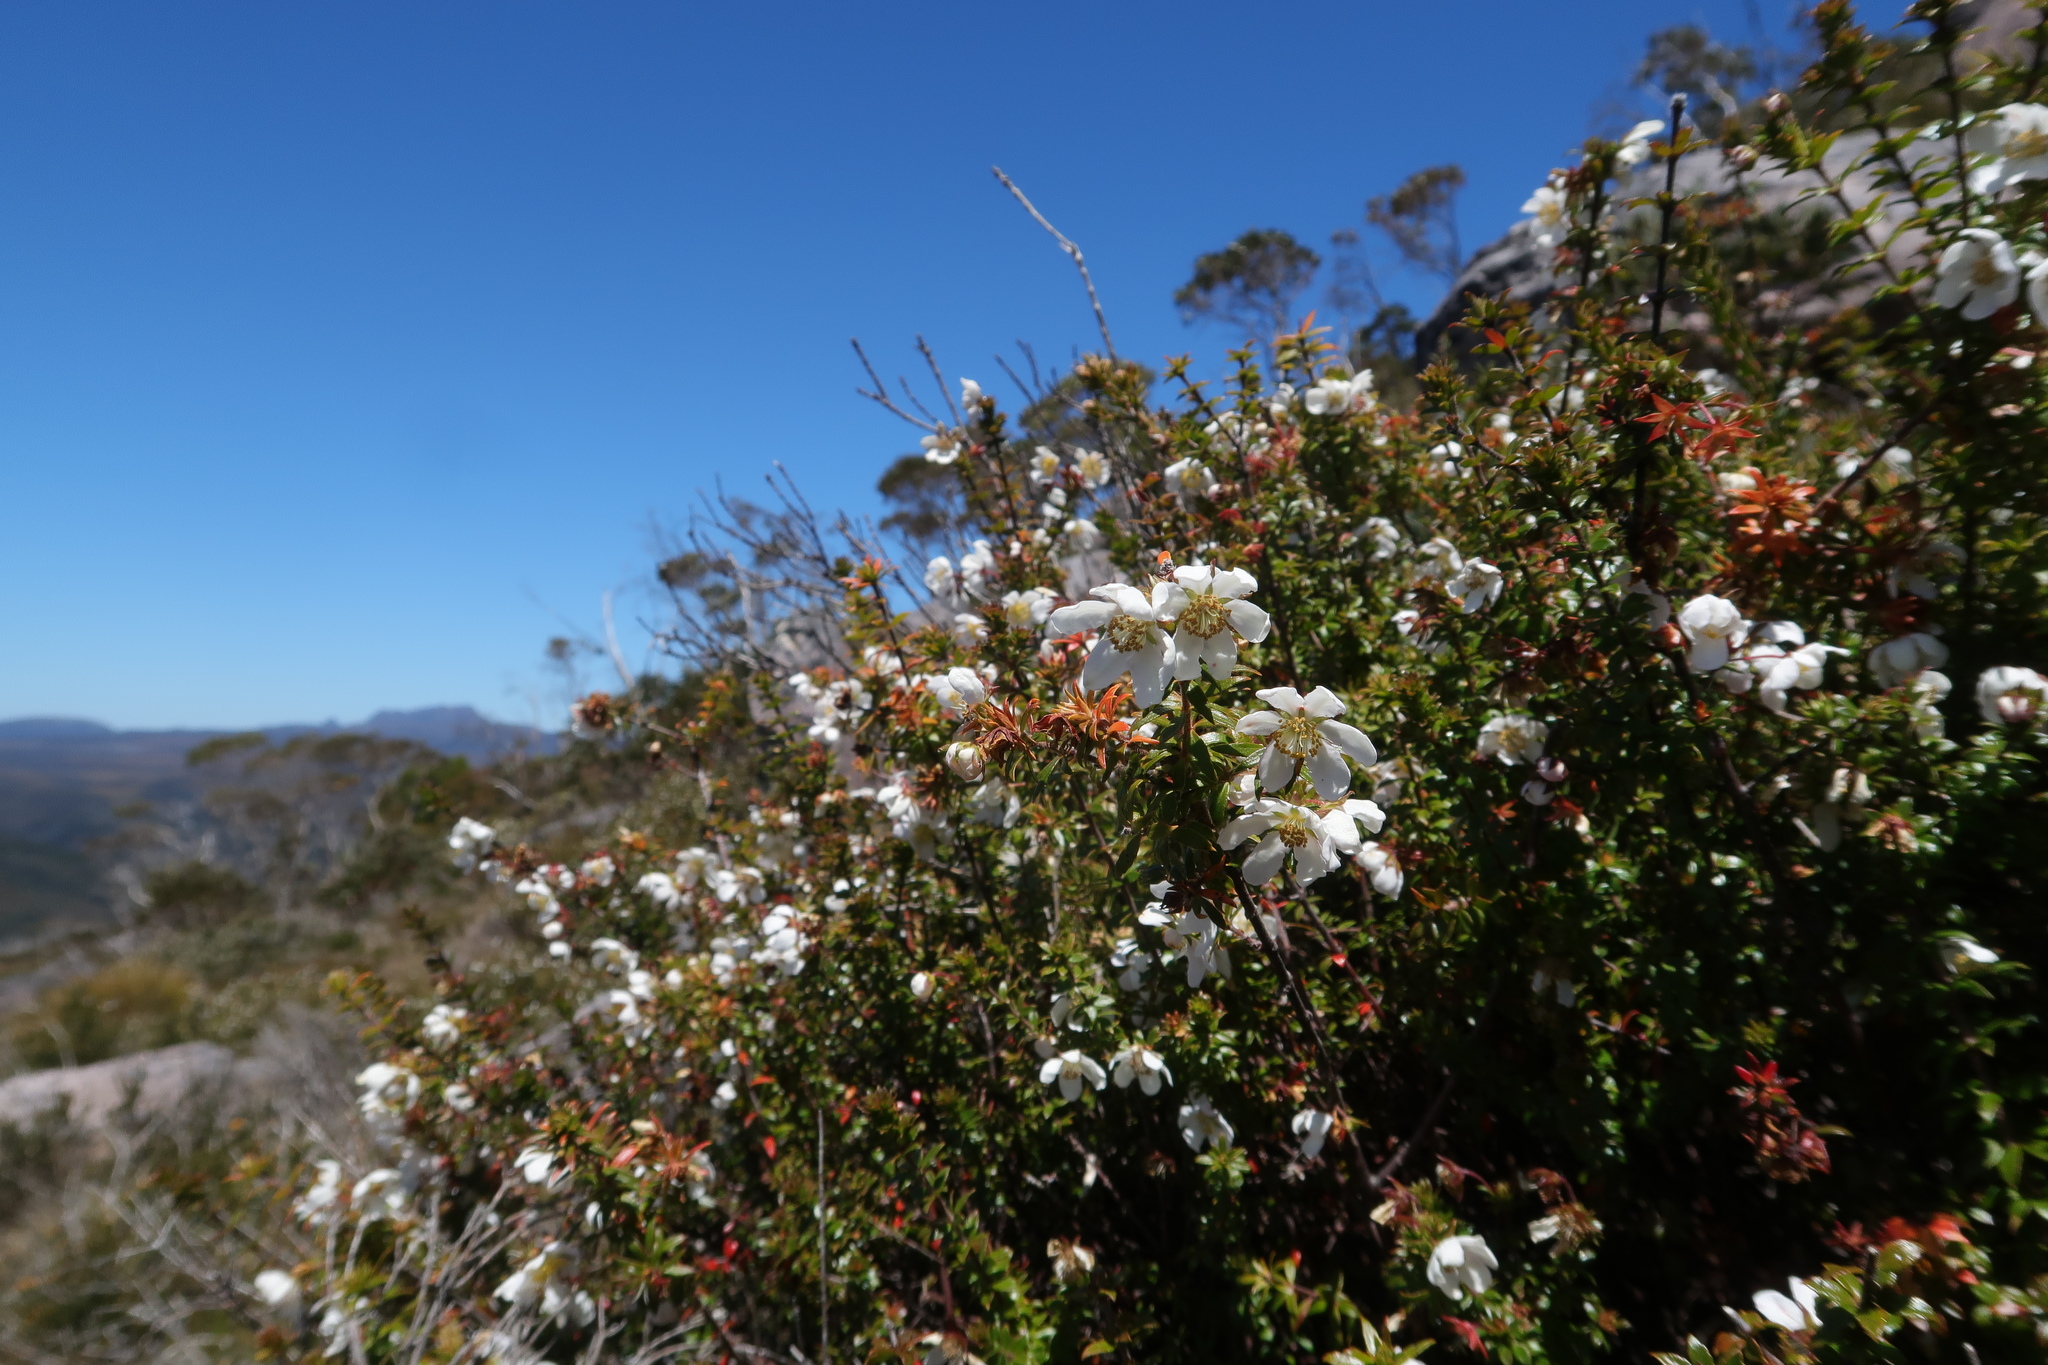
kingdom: Plantae
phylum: Tracheophyta
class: Magnoliopsida
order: Oxalidales
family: Cunoniaceae
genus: Bauera
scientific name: Bauera rubioides
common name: River-rose
